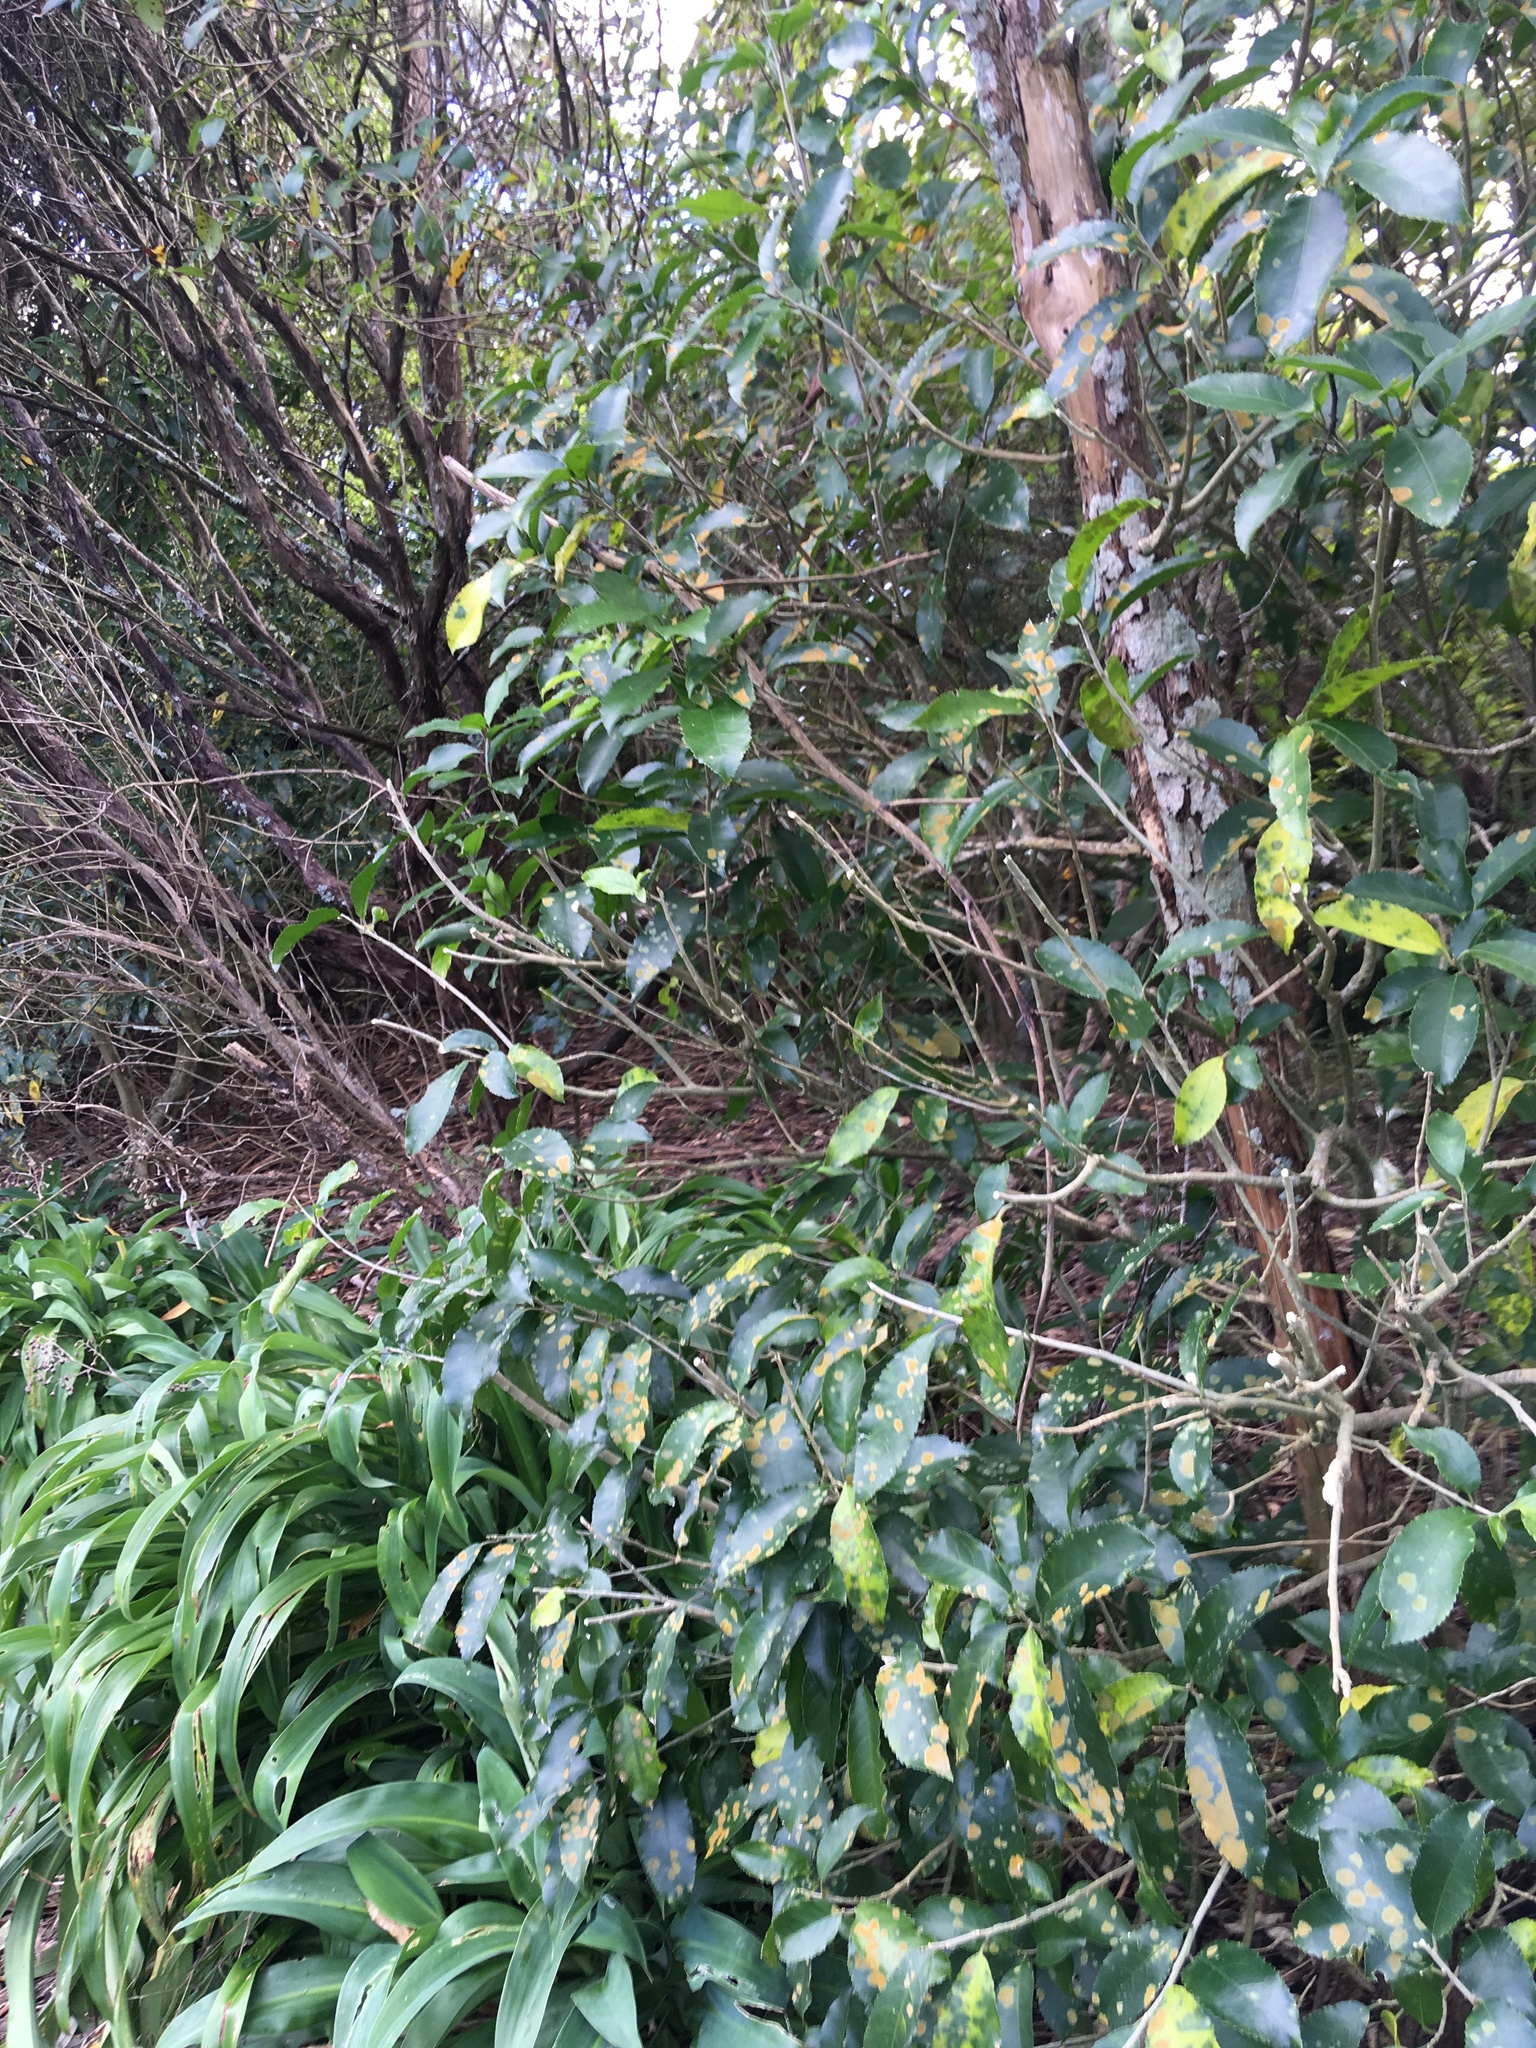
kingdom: Plantae
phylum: Tracheophyta
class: Liliopsida
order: Asparagales
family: Asparagaceae
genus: Arthropodium
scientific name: Arthropodium cirratum
